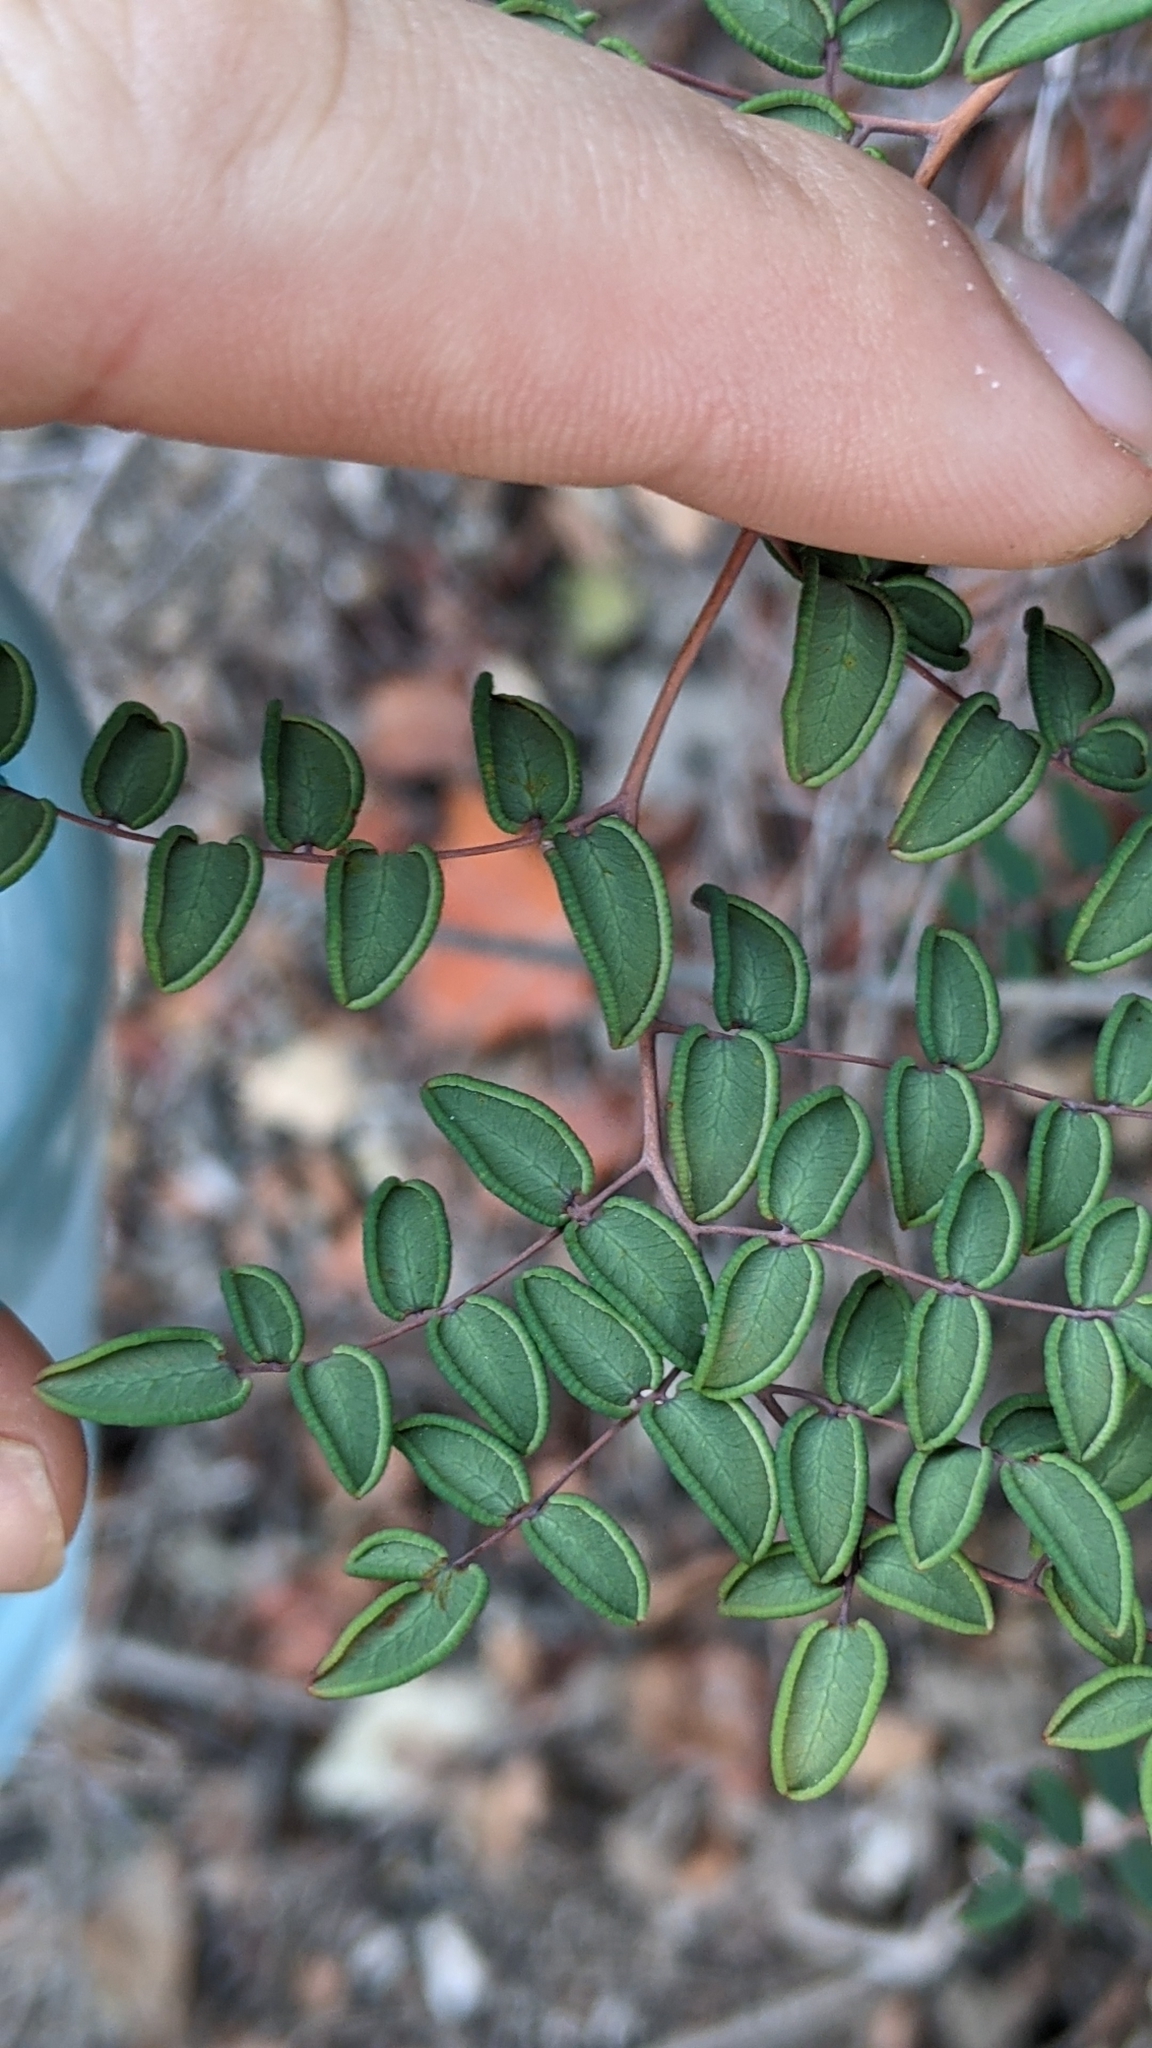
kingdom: Plantae
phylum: Tracheophyta
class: Polypodiopsida
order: Polypodiales
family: Pteridaceae
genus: Pellaea
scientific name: Pellaea andromedifolia
